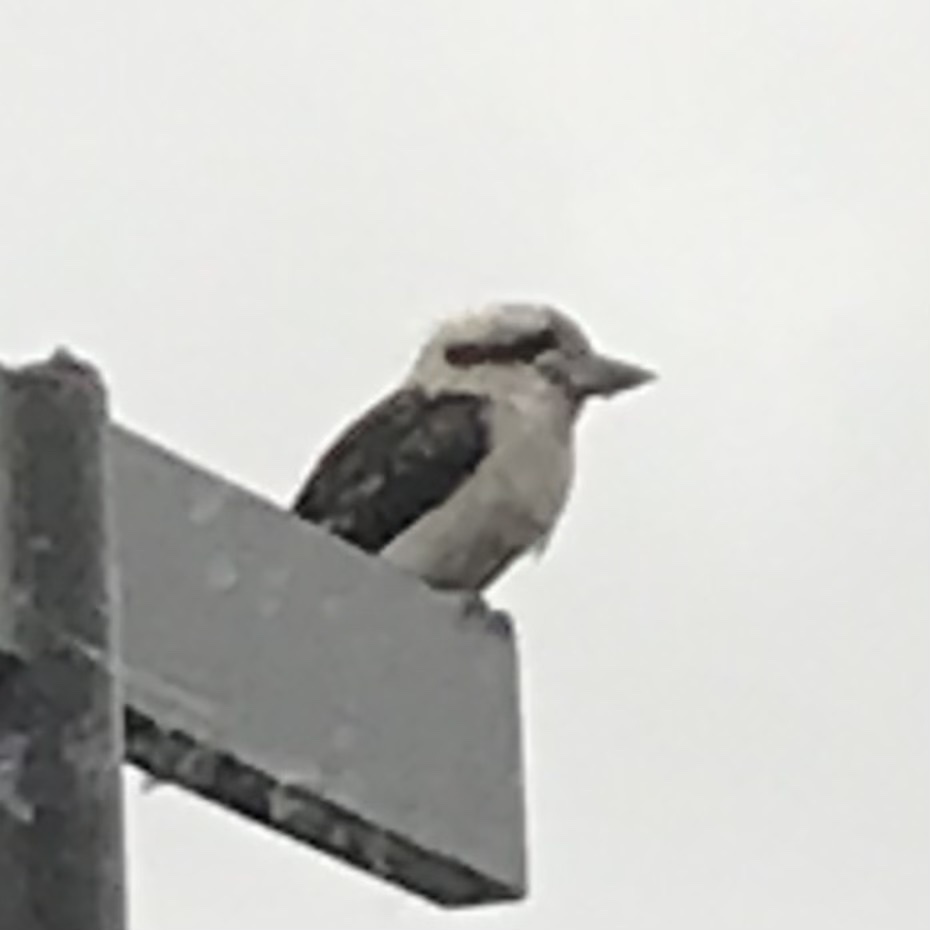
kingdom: Animalia
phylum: Chordata
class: Aves
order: Coraciiformes
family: Alcedinidae
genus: Dacelo
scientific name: Dacelo novaeguineae
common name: Laughing kookaburra
